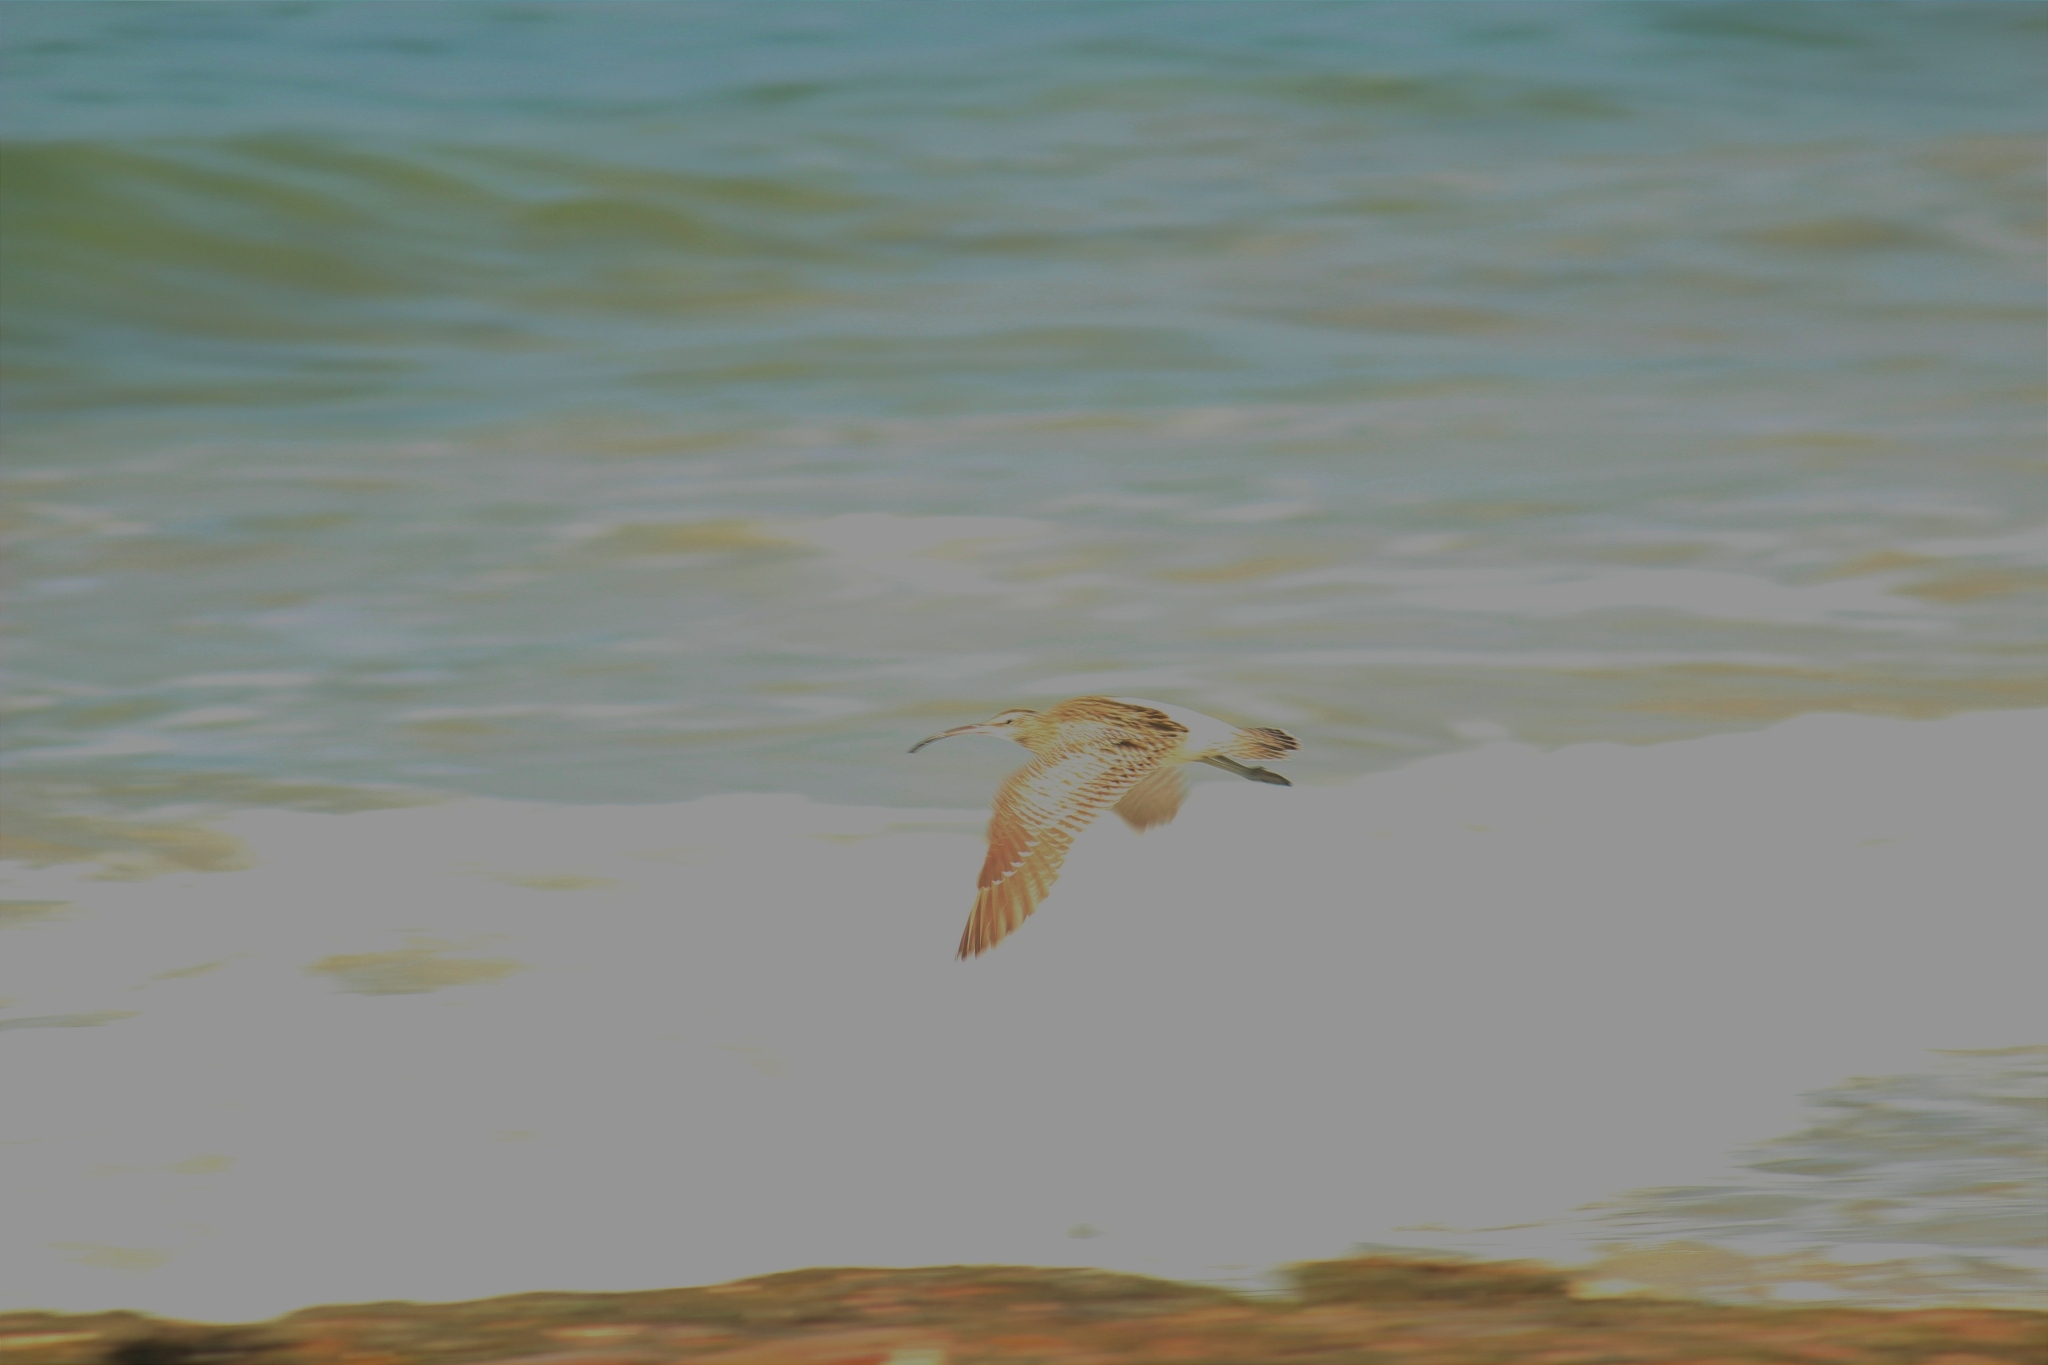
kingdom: Animalia
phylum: Chordata
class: Aves
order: Charadriiformes
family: Scolopacidae
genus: Numenius
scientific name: Numenius phaeopus
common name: Whimbrel
